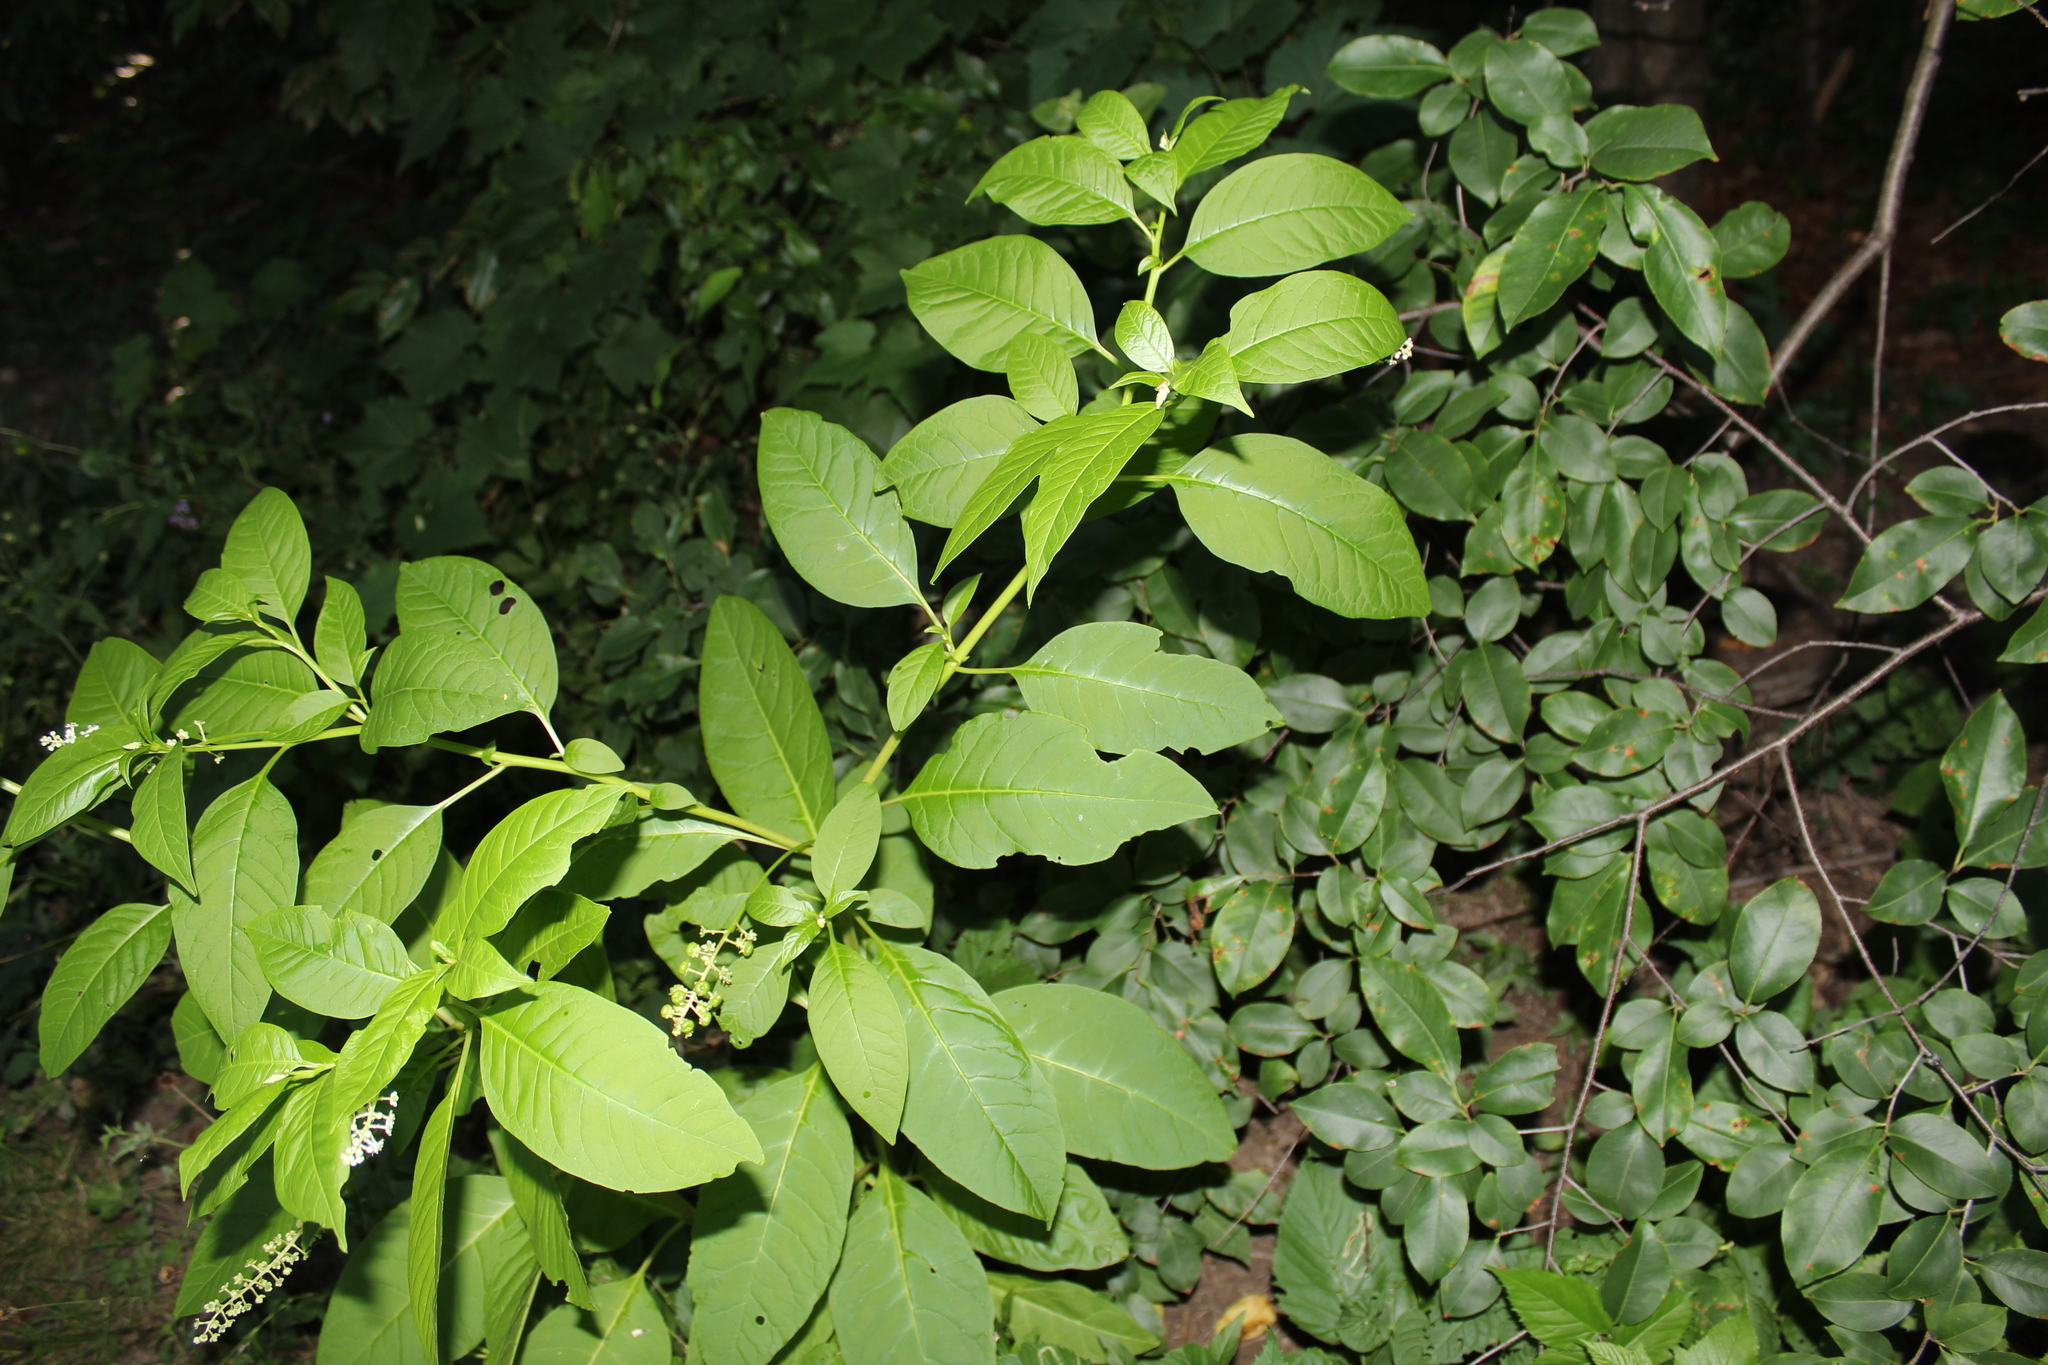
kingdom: Plantae
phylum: Tracheophyta
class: Magnoliopsida
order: Caryophyllales
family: Phytolaccaceae
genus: Phytolacca
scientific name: Phytolacca americana
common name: American pokeweed
